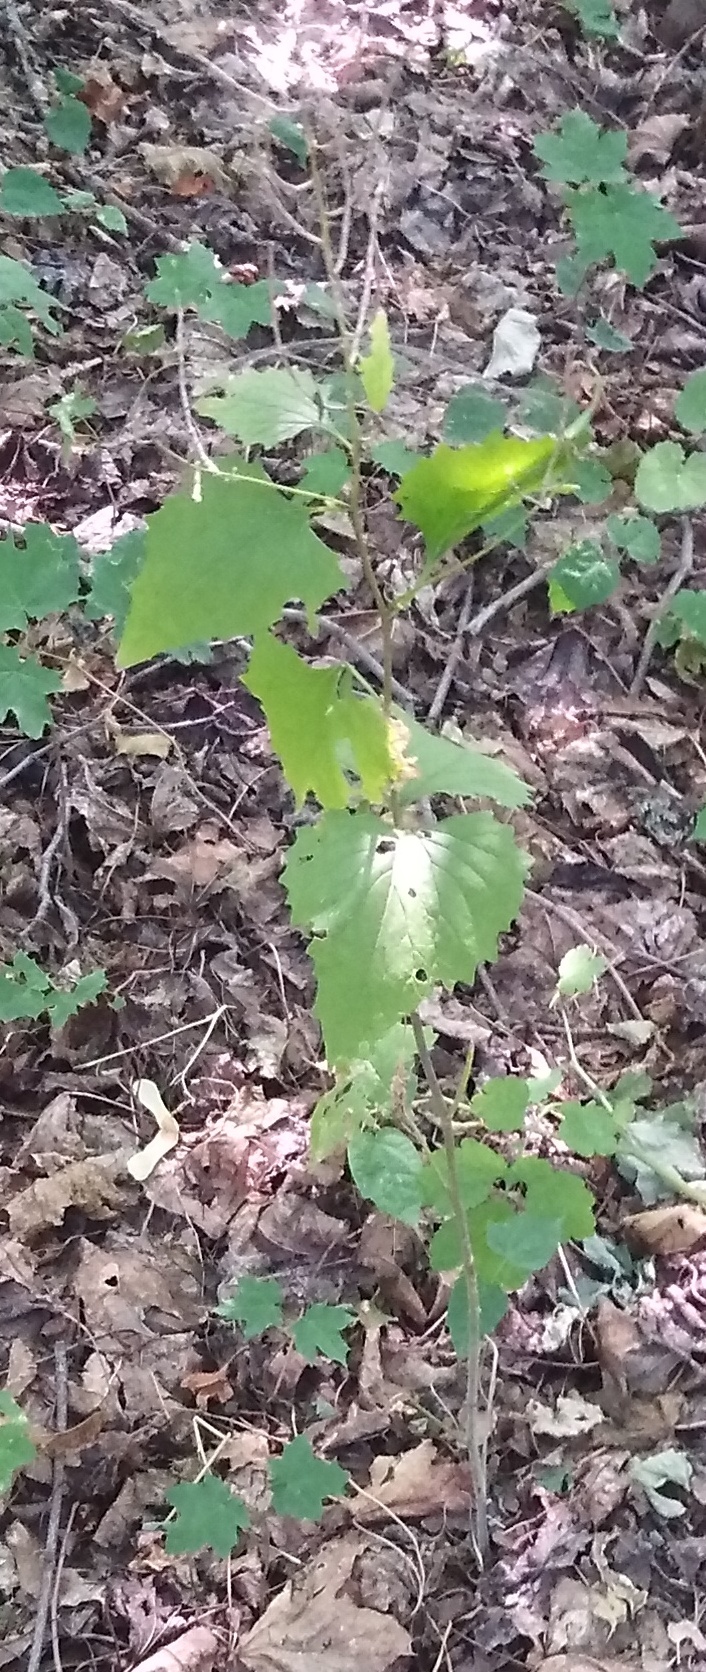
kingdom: Plantae
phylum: Tracheophyta
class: Magnoliopsida
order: Brassicales
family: Brassicaceae
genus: Alliaria
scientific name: Alliaria petiolata
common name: Garlic mustard
